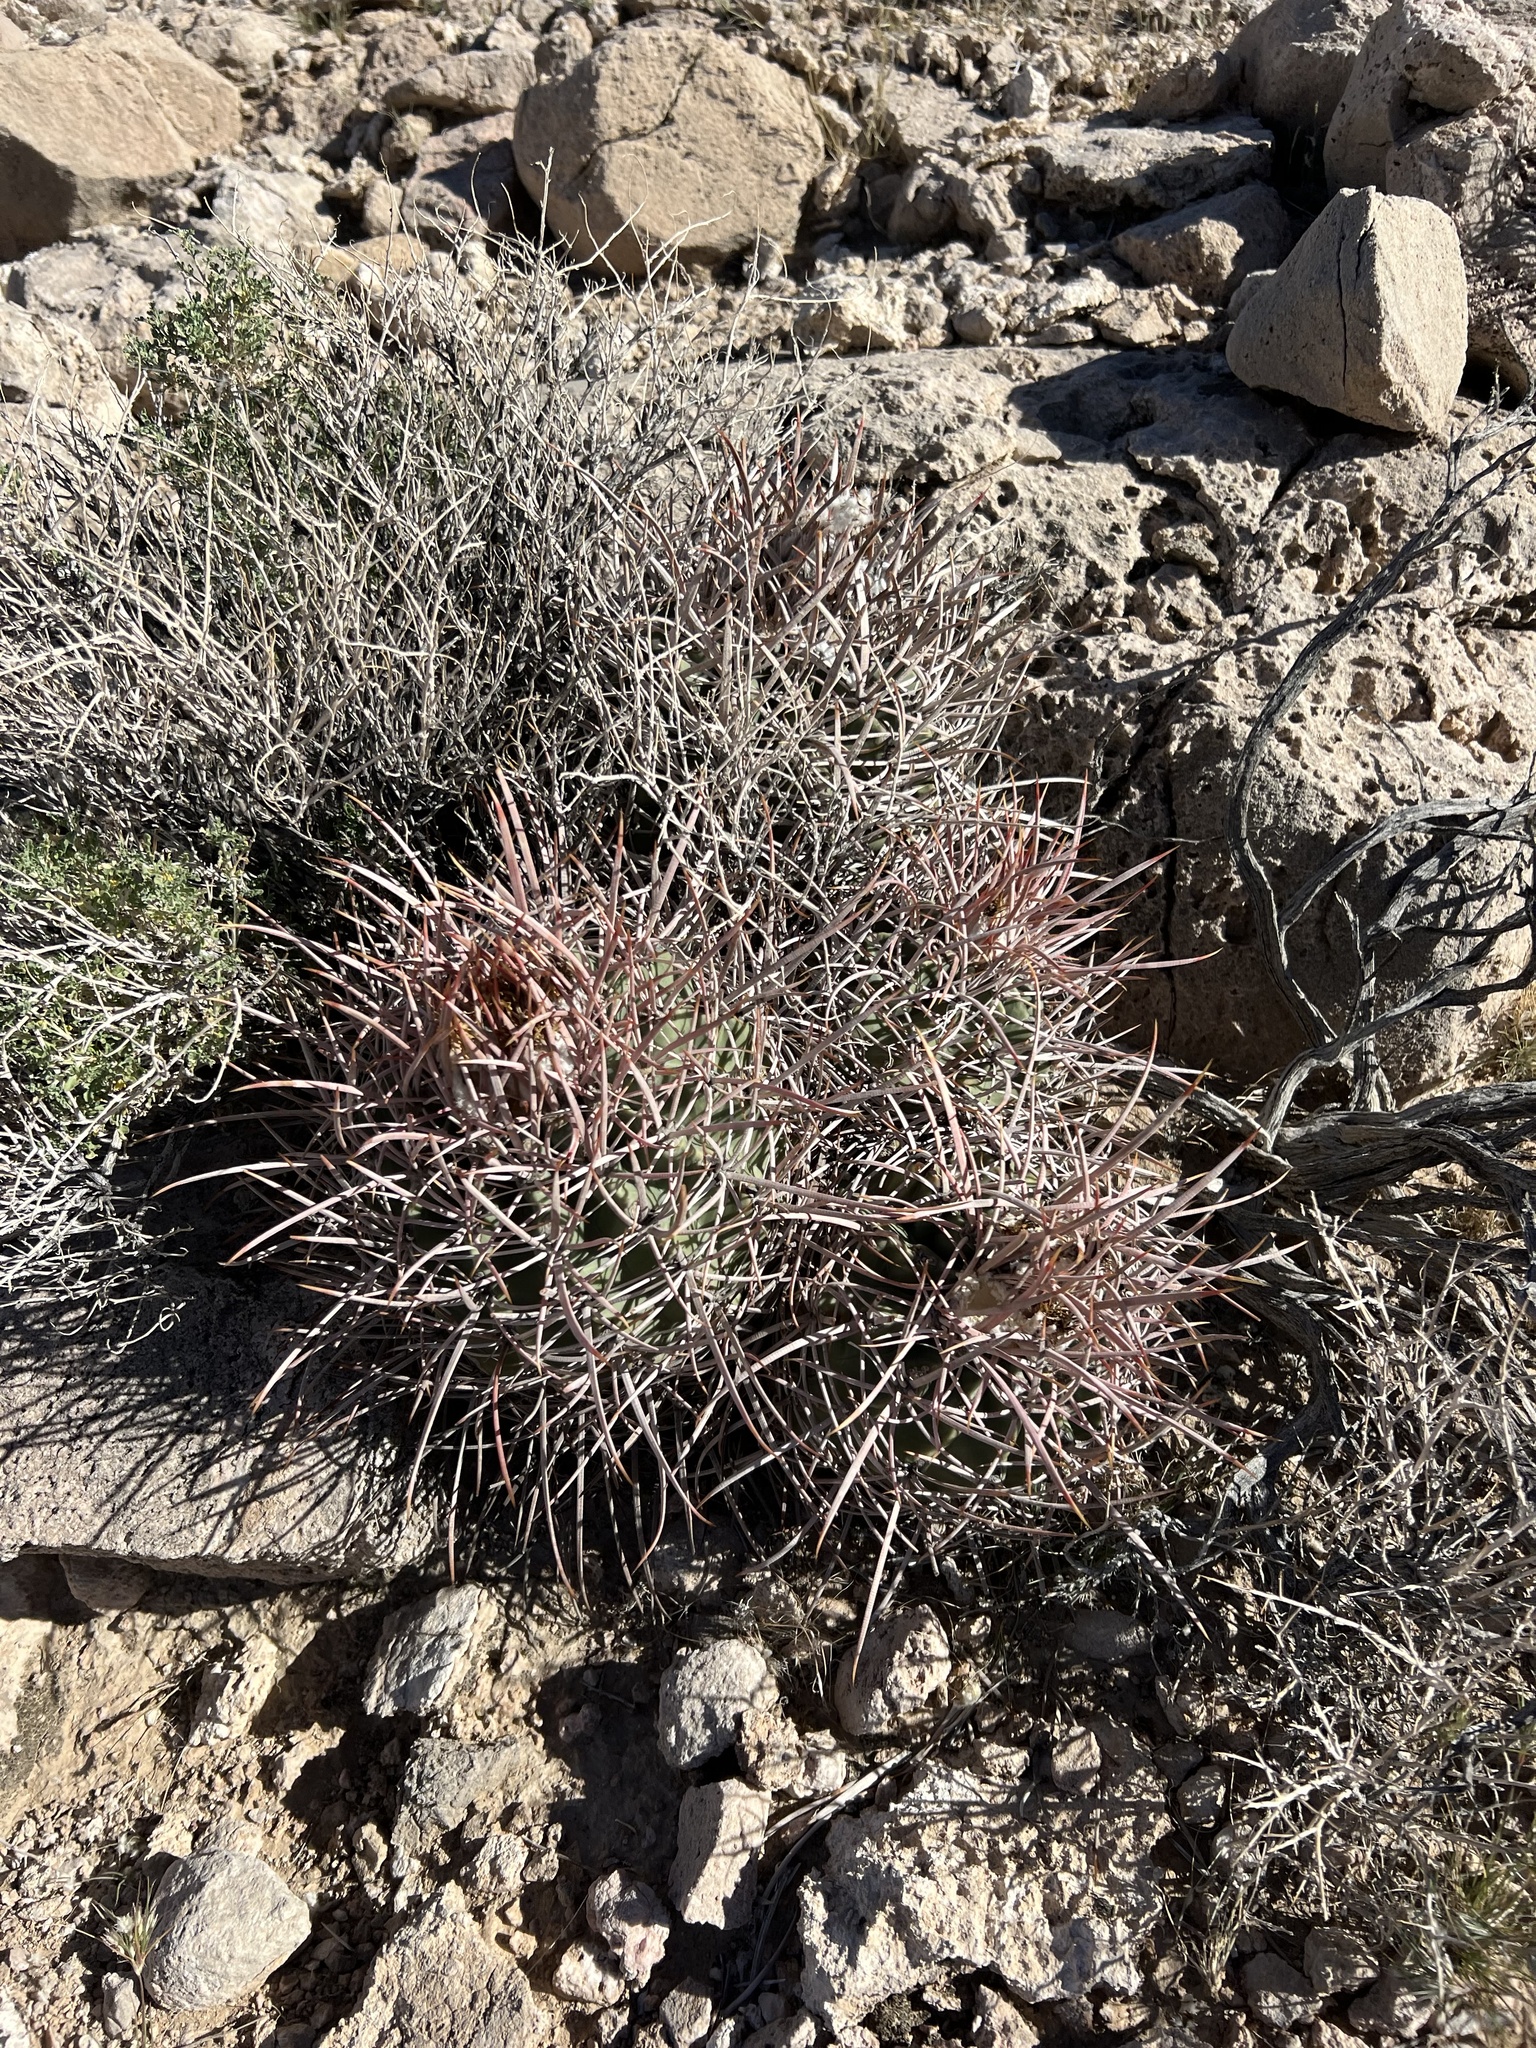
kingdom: Plantae
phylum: Tracheophyta
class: Magnoliopsida
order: Caryophyllales
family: Cactaceae
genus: Echinocactus
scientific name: Echinocactus polycephalus
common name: Cottontop cactus
